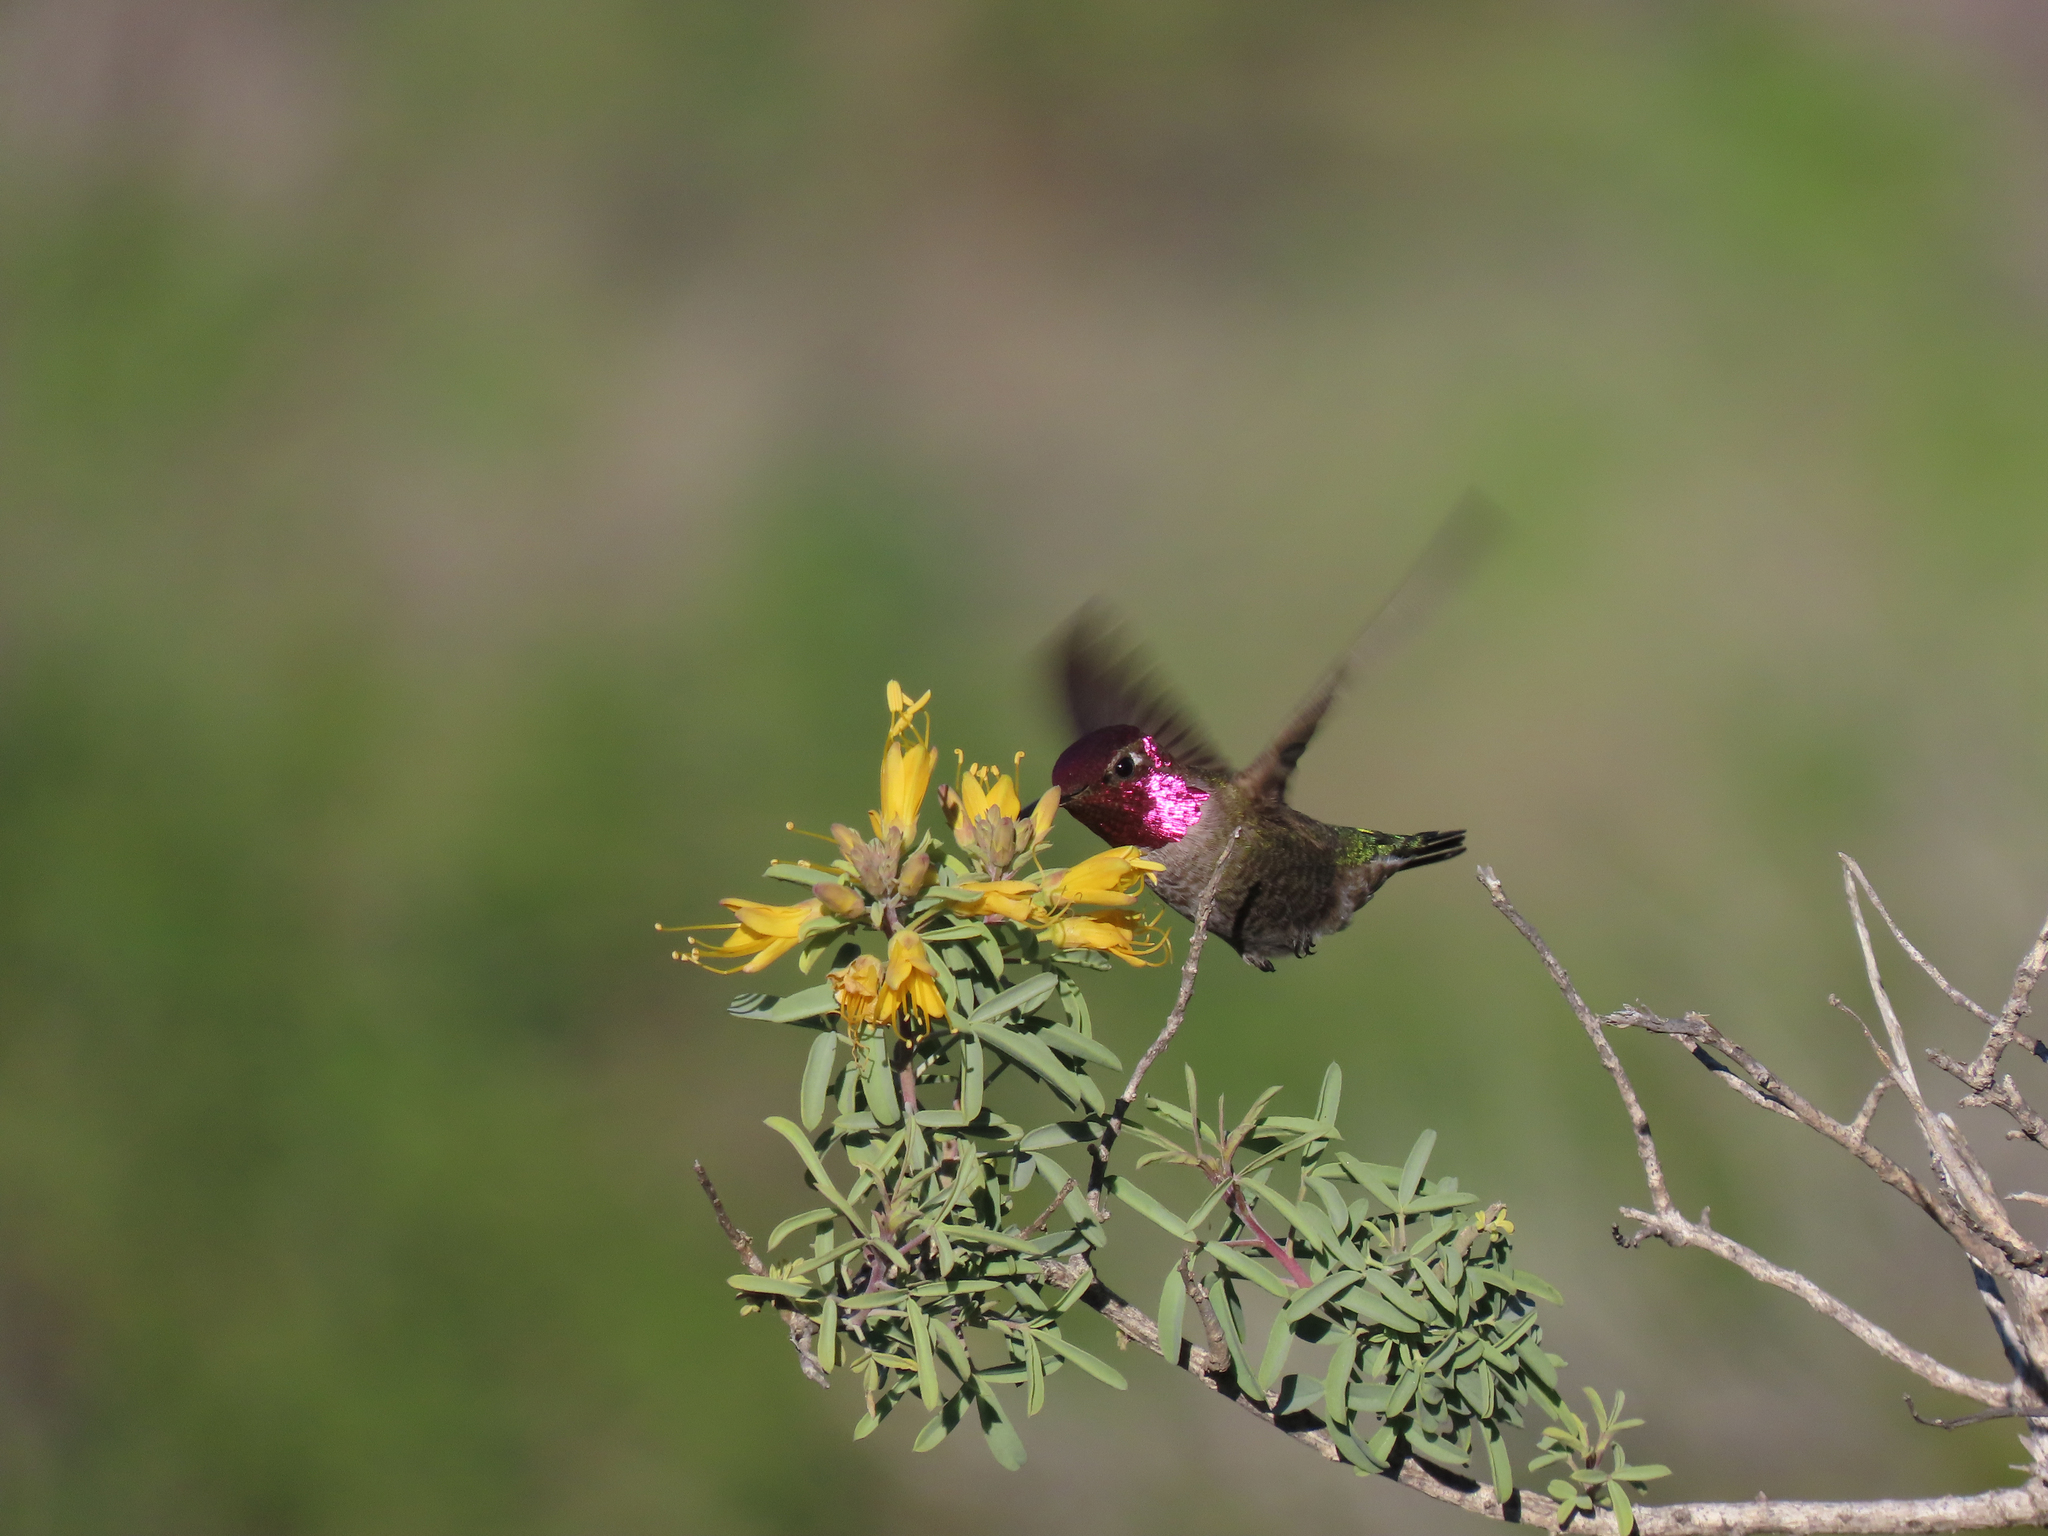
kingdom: Animalia
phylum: Chordata
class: Aves
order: Apodiformes
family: Trochilidae
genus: Calypte
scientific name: Calypte anna
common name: Anna's hummingbird
